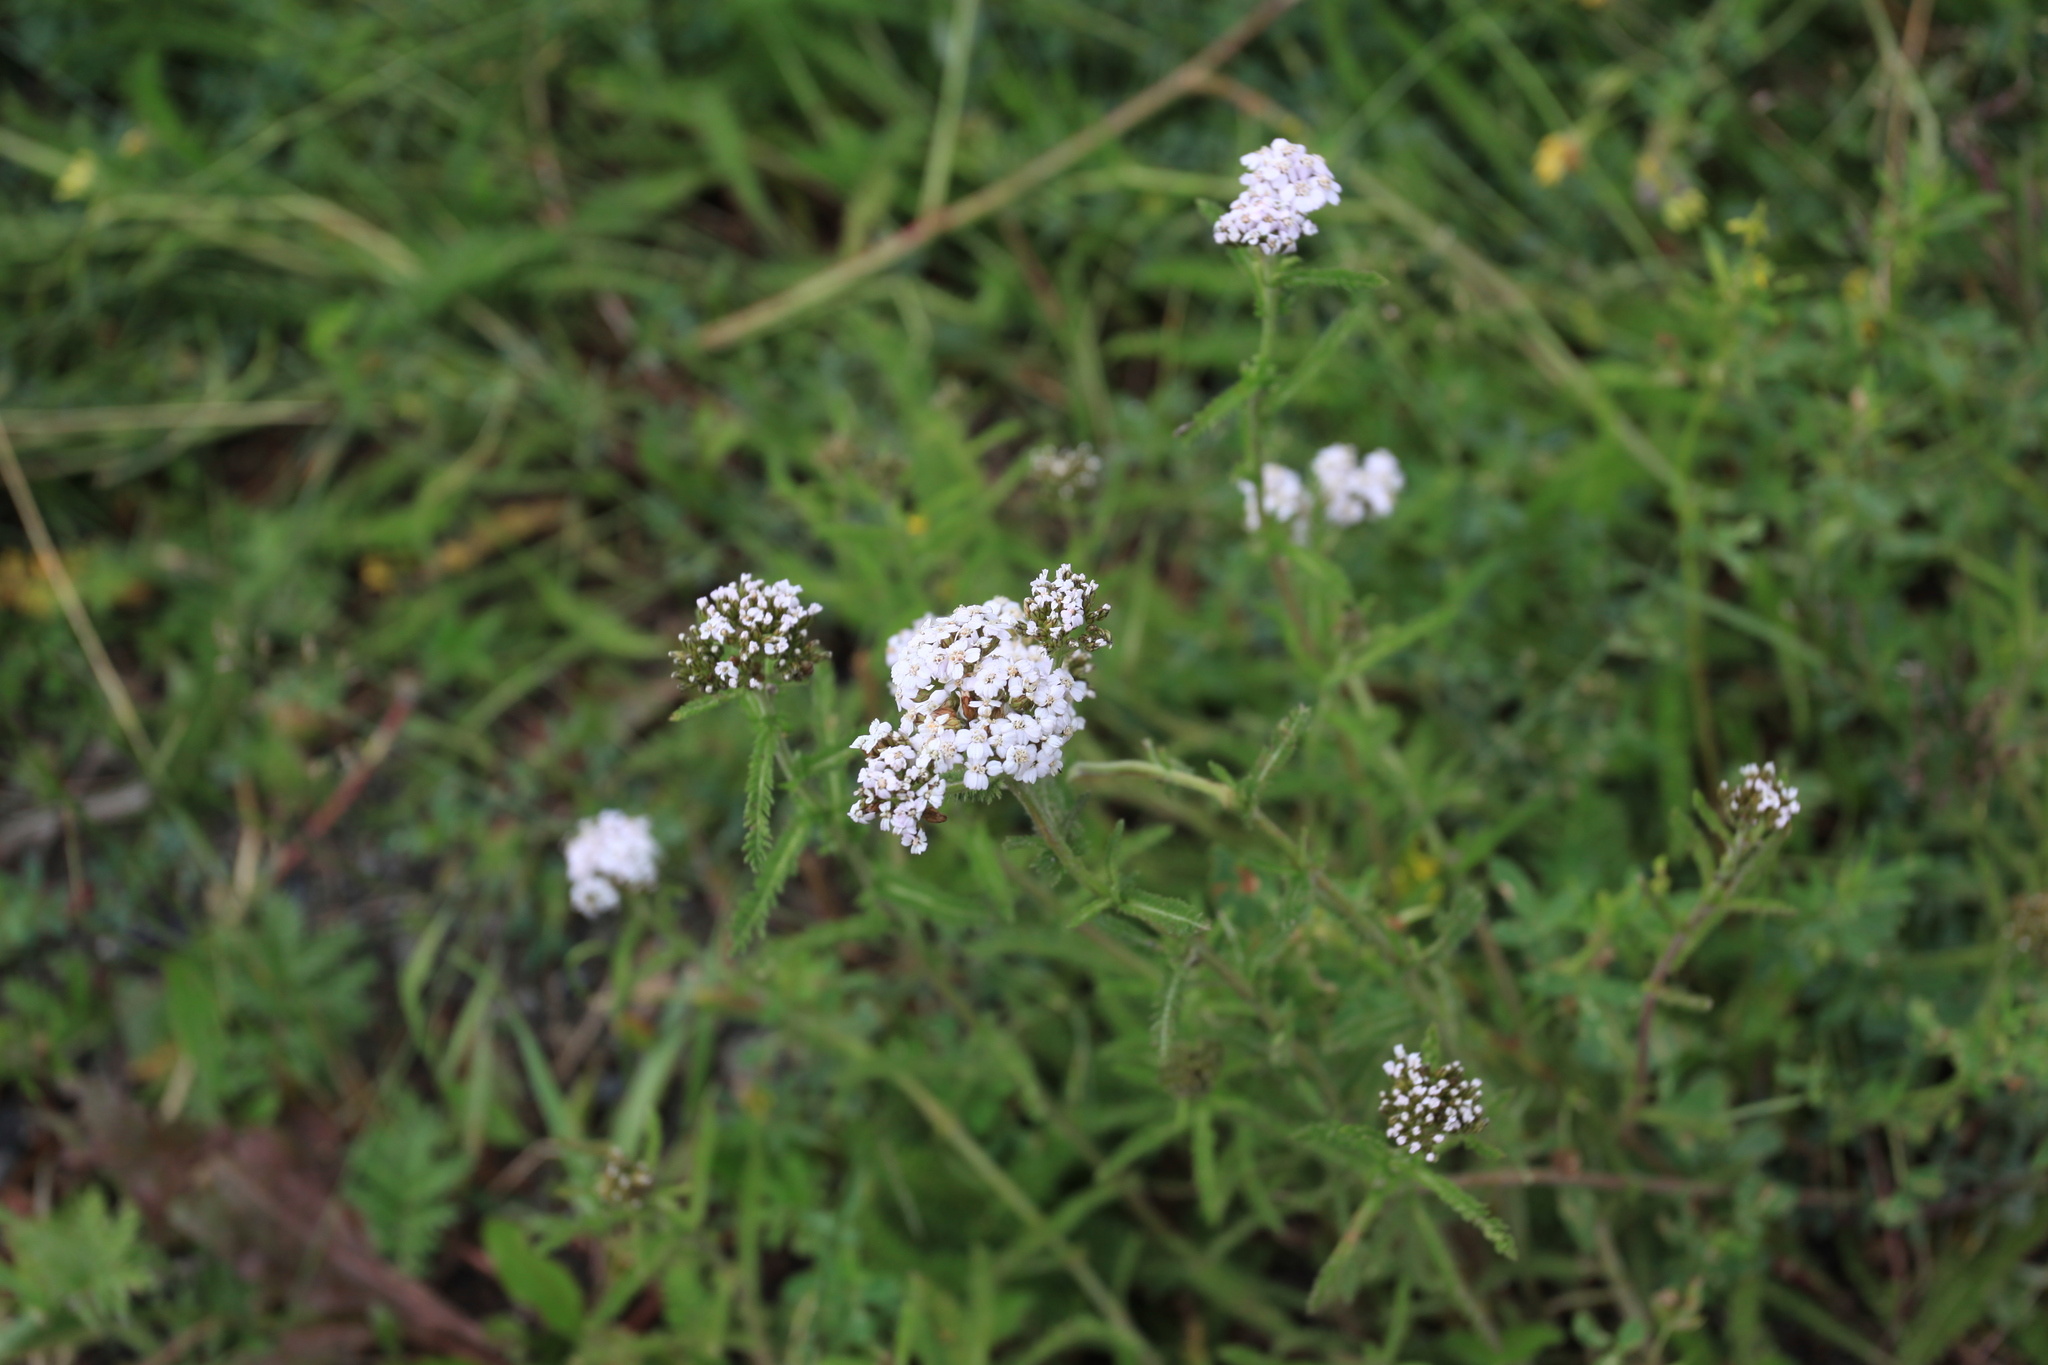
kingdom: Plantae
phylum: Tracheophyta
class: Magnoliopsida
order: Asterales
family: Asteraceae
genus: Achillea
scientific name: Achillea millefolium
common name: Yarrow
